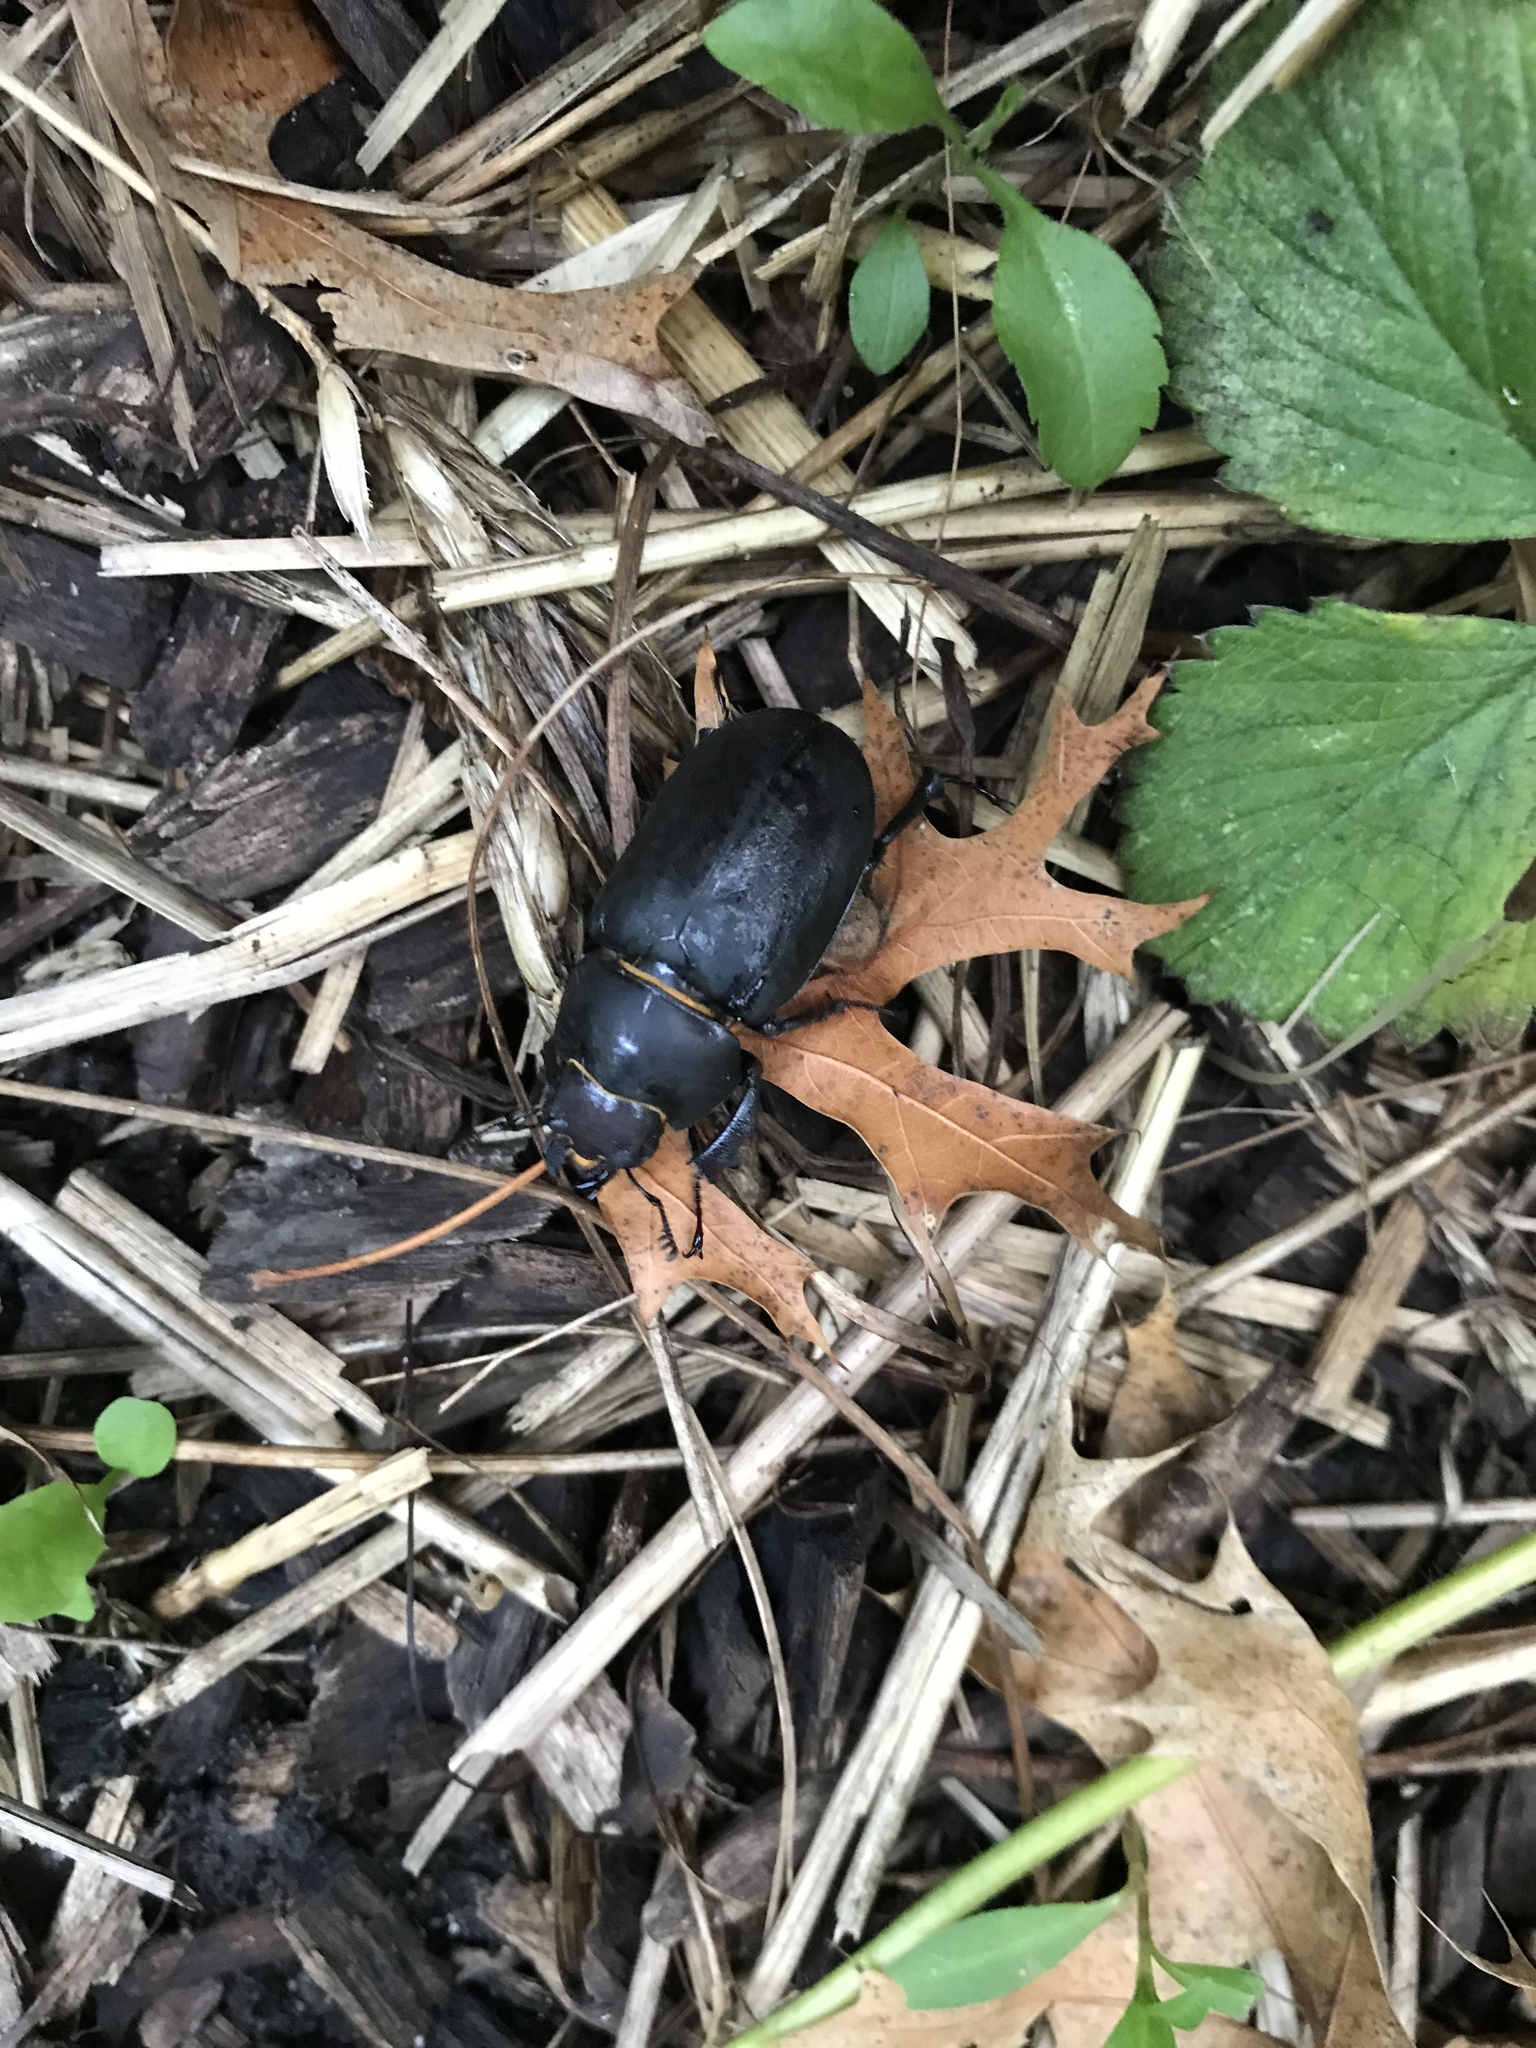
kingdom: Animalia
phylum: Arthropoda
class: Insecta
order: Coleoptera
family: Lucanidae
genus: Lucanus
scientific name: Lucanus placidus
